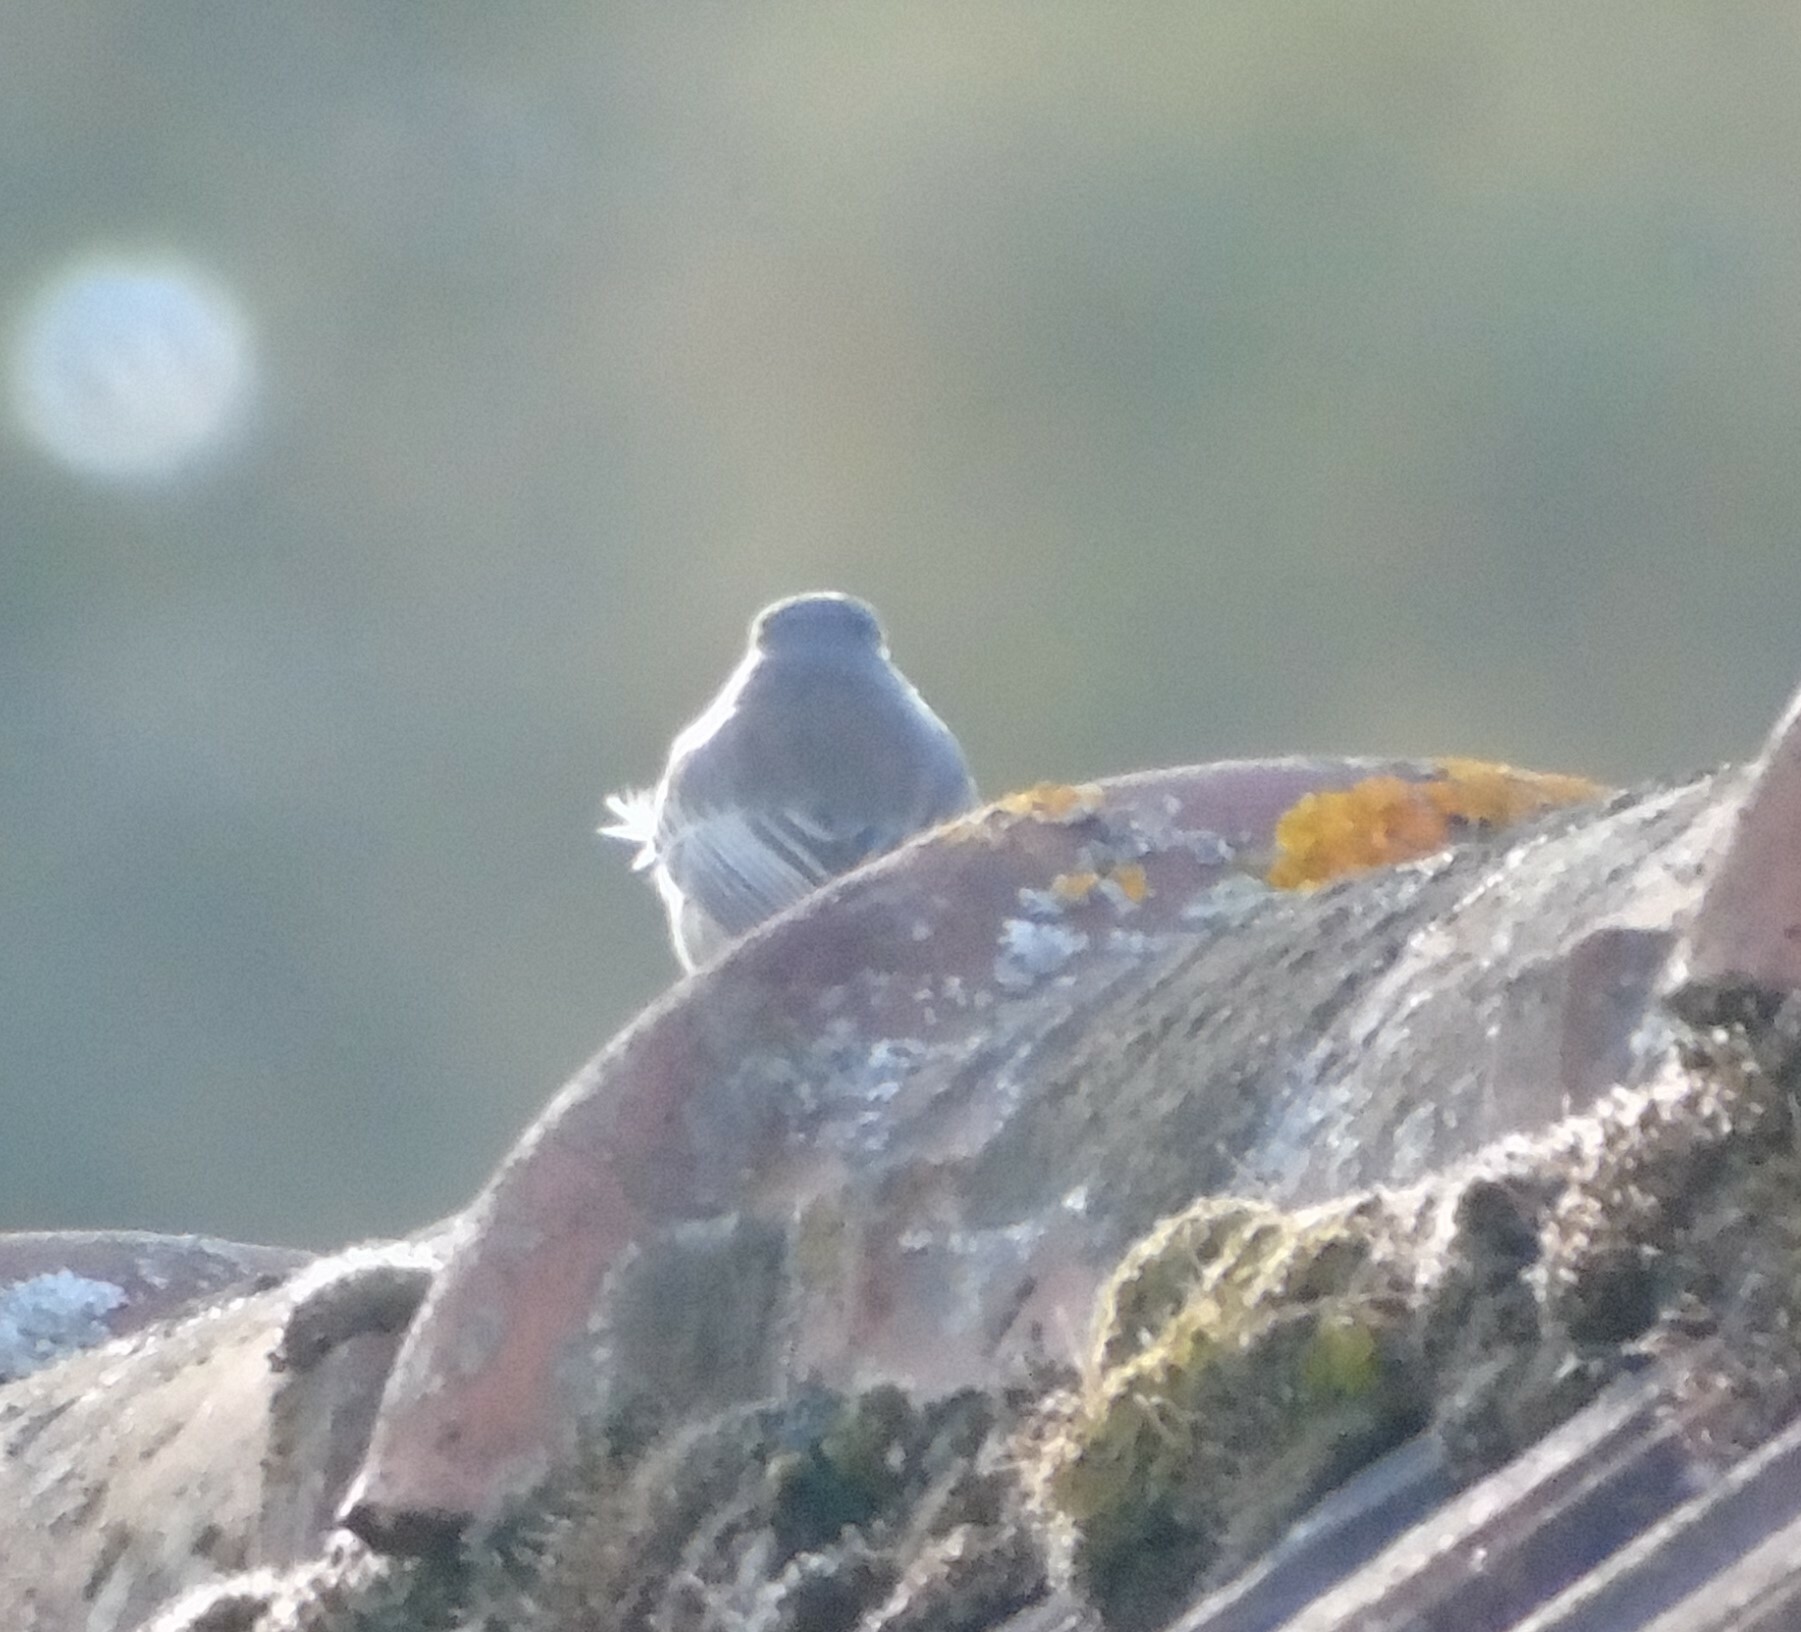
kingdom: Animalia
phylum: Chordata
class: Aves
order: Passeriformes
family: Muscicapidae
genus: Phoenicurus
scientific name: Phoenicurus ochruros
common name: Black redstart
